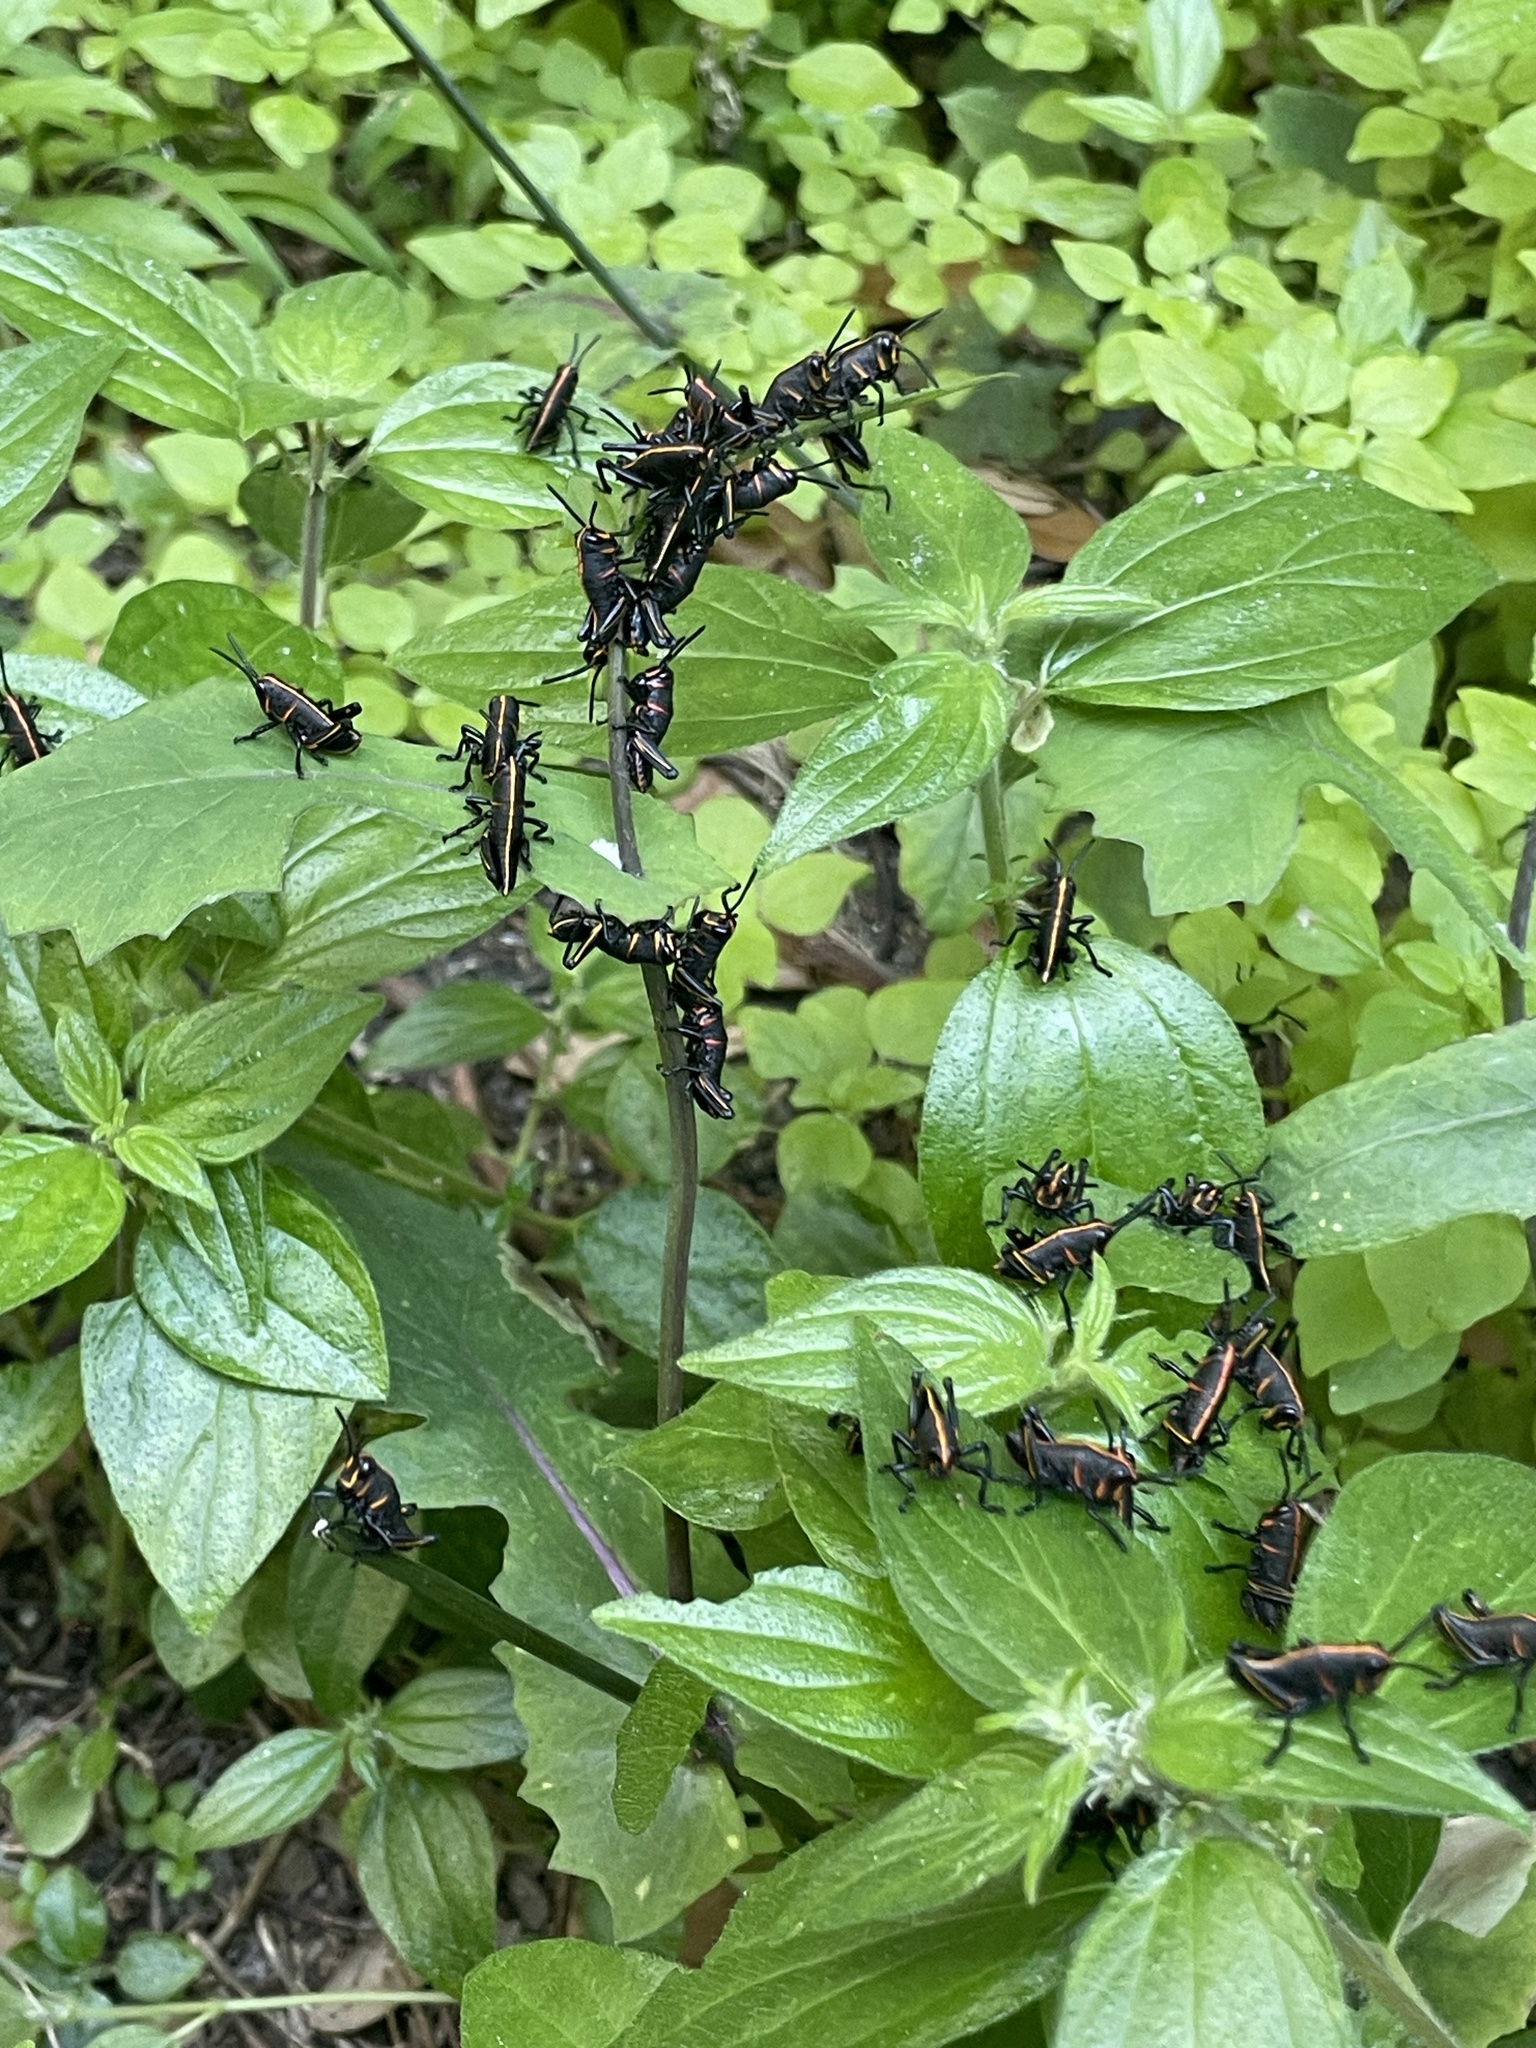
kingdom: Animalia
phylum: Arthropoda
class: Insecta
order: Orthoptera
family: Romaleidae
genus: Romalea
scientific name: Romalea microptera
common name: Eastern lubber grasshopper
